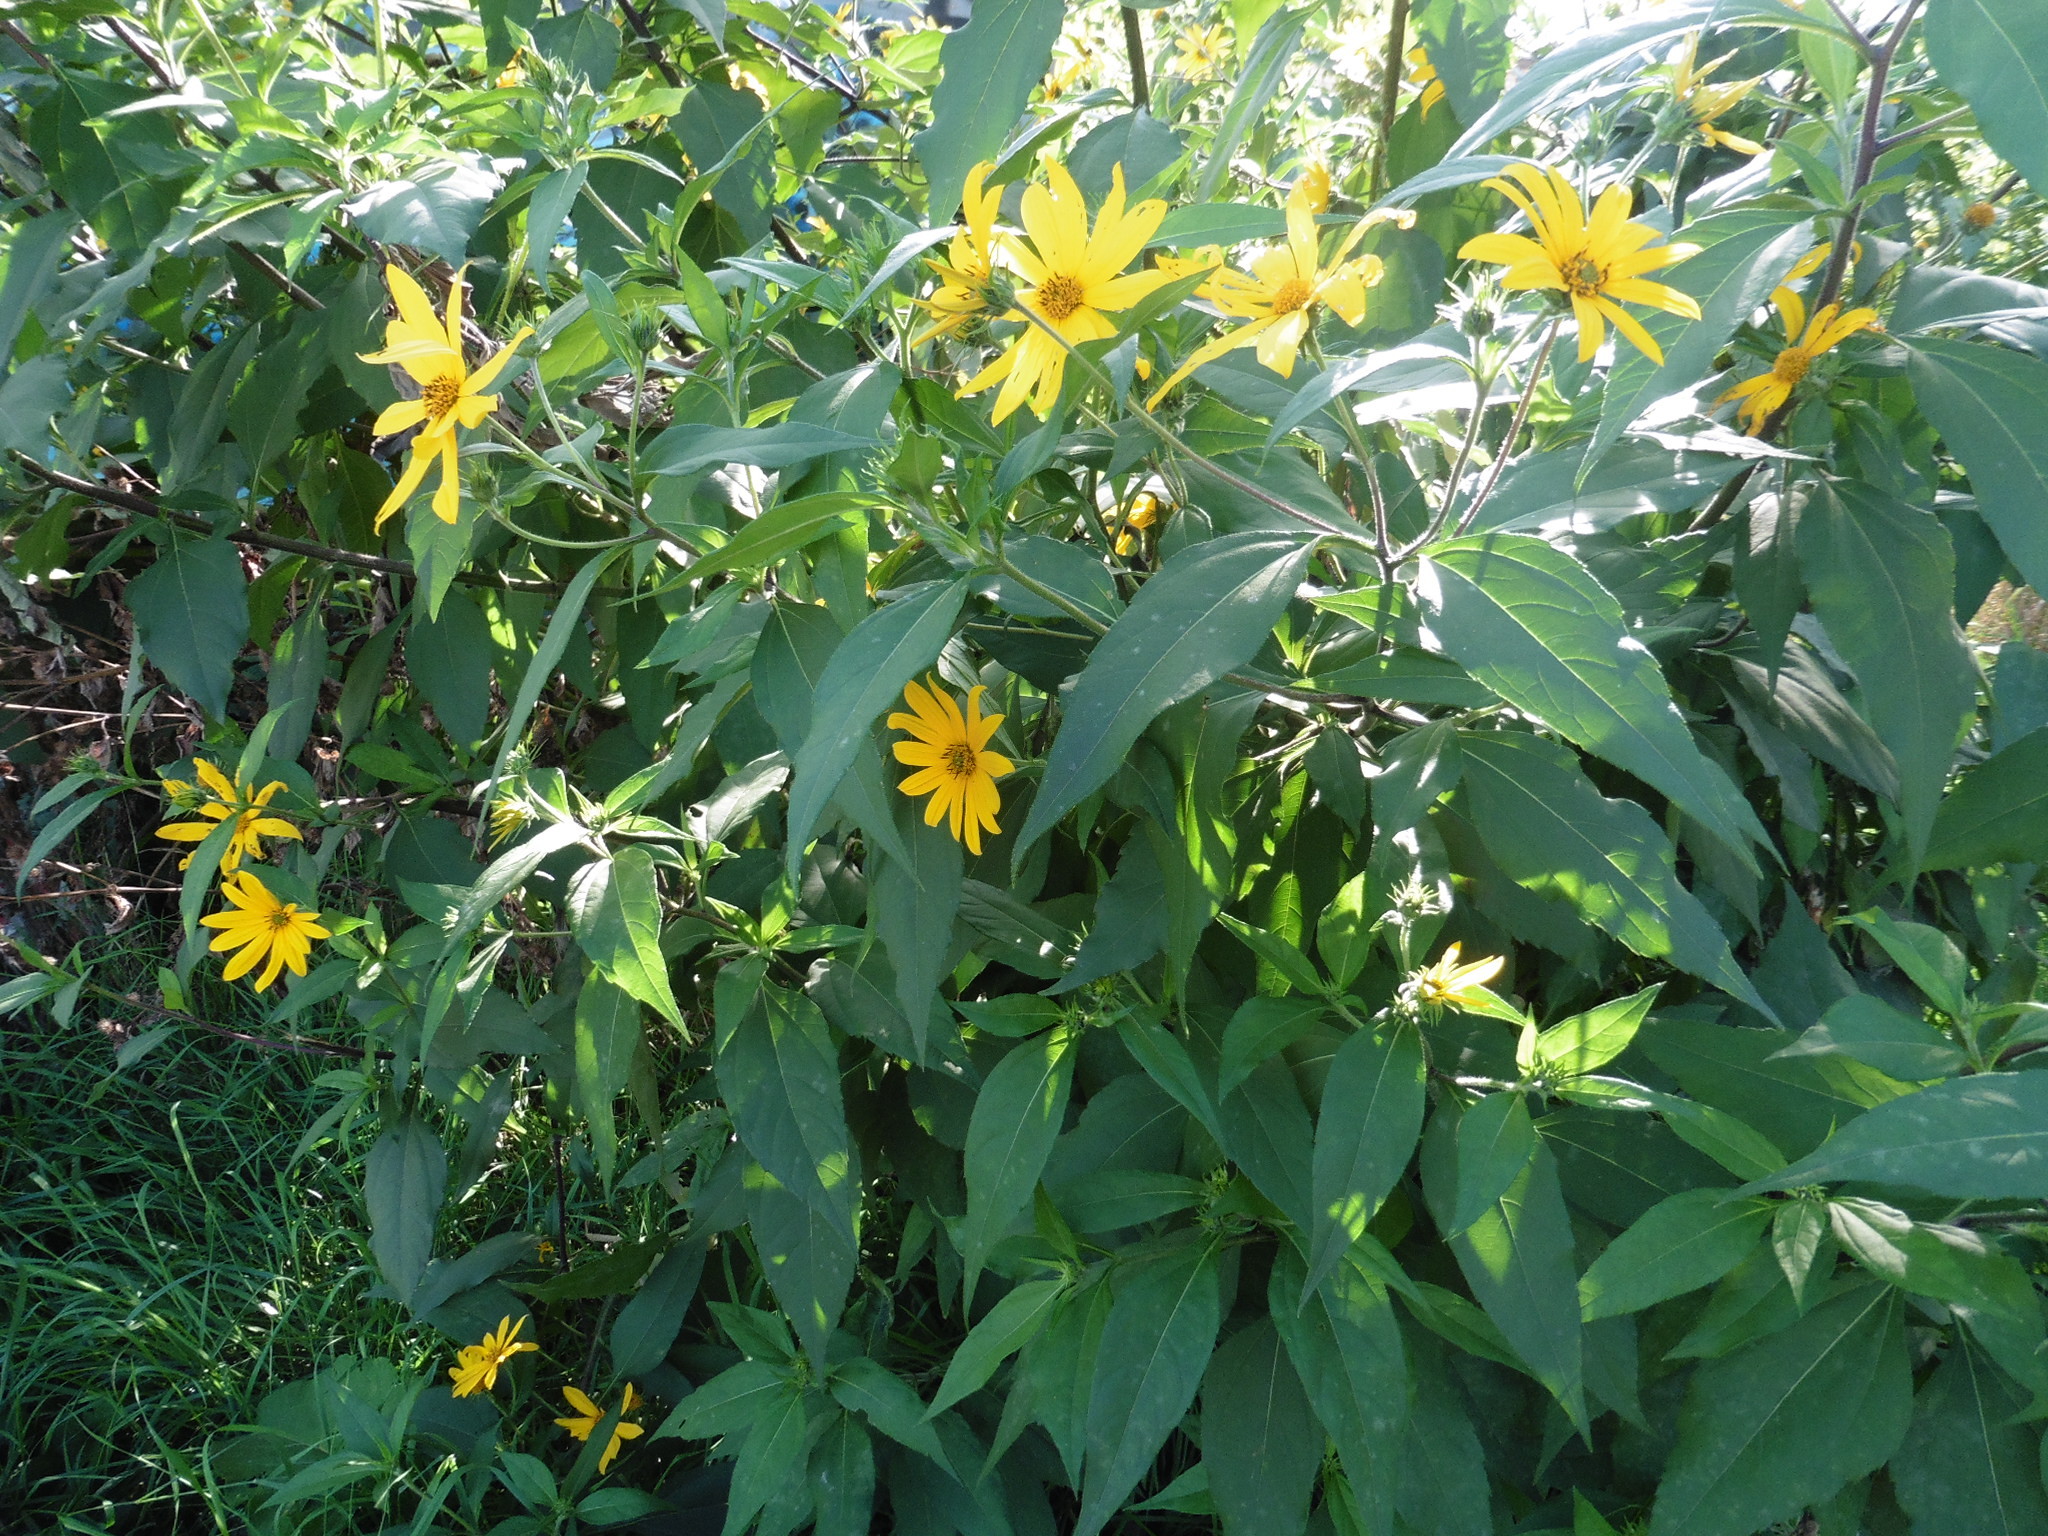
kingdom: Plantae
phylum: Tracheophyta
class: Magnoliopsida
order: Asterales
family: Asteraceae
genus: Helianthus
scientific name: Helianthus tuberosus
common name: Jerusalem artichoke
